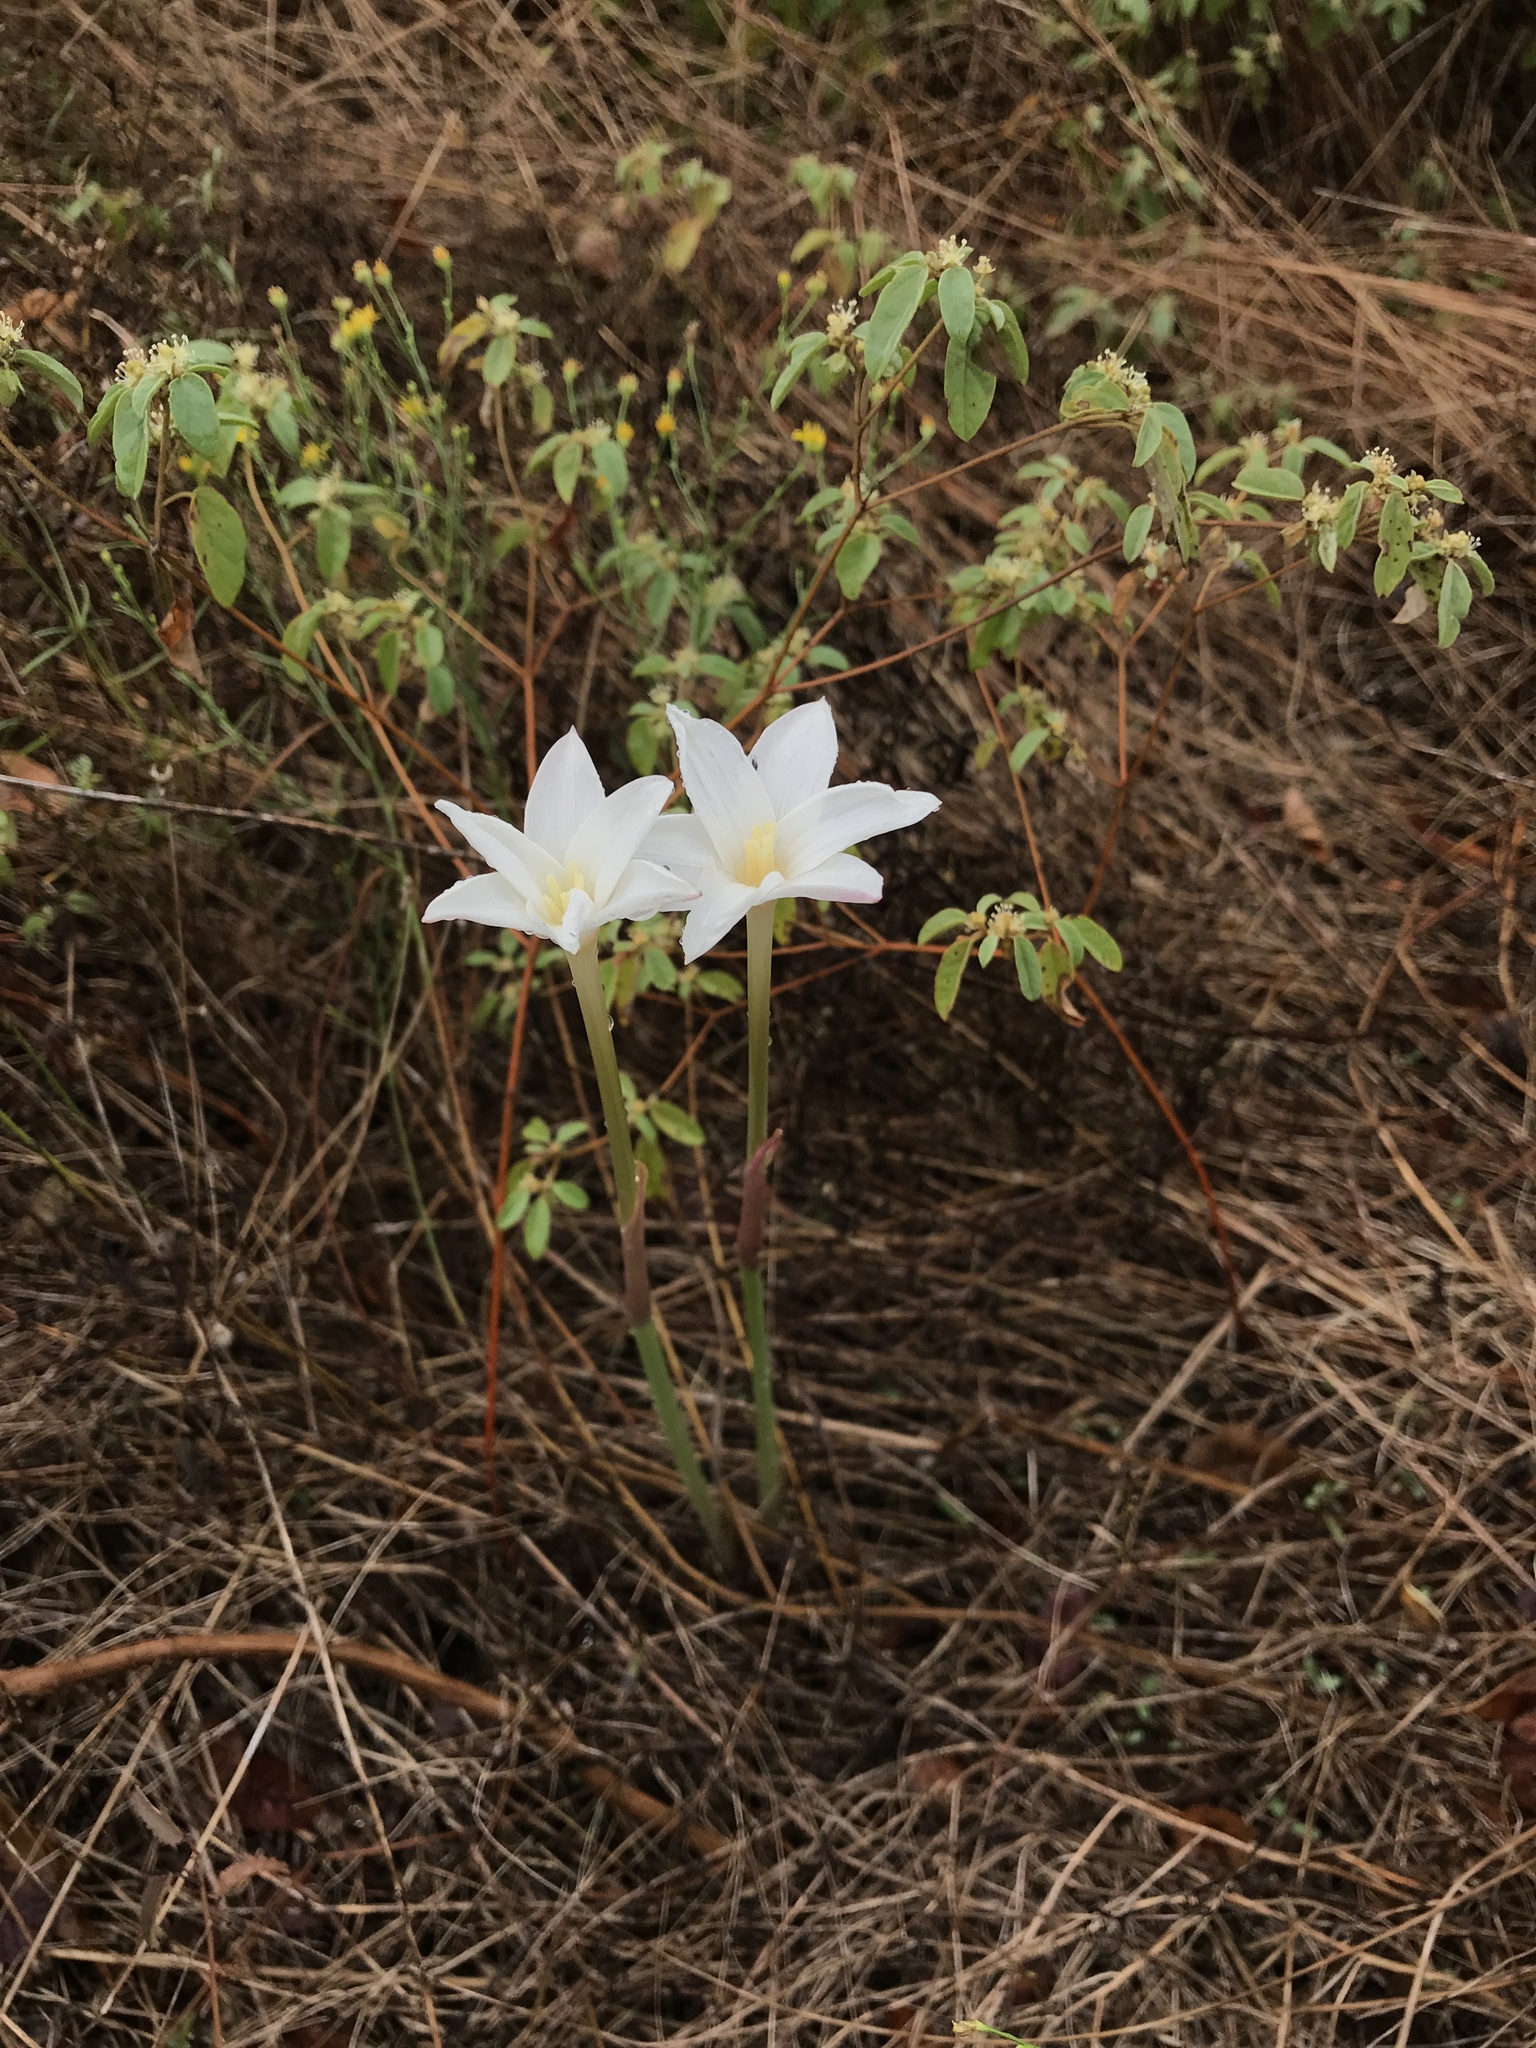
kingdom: Plantae
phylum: Tracheophyta
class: Liliopsida
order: Asparagales
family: Amaryllidaceae
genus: Zephyranthes
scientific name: Zephyranthes chlorosolen
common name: Evening rain-lily
